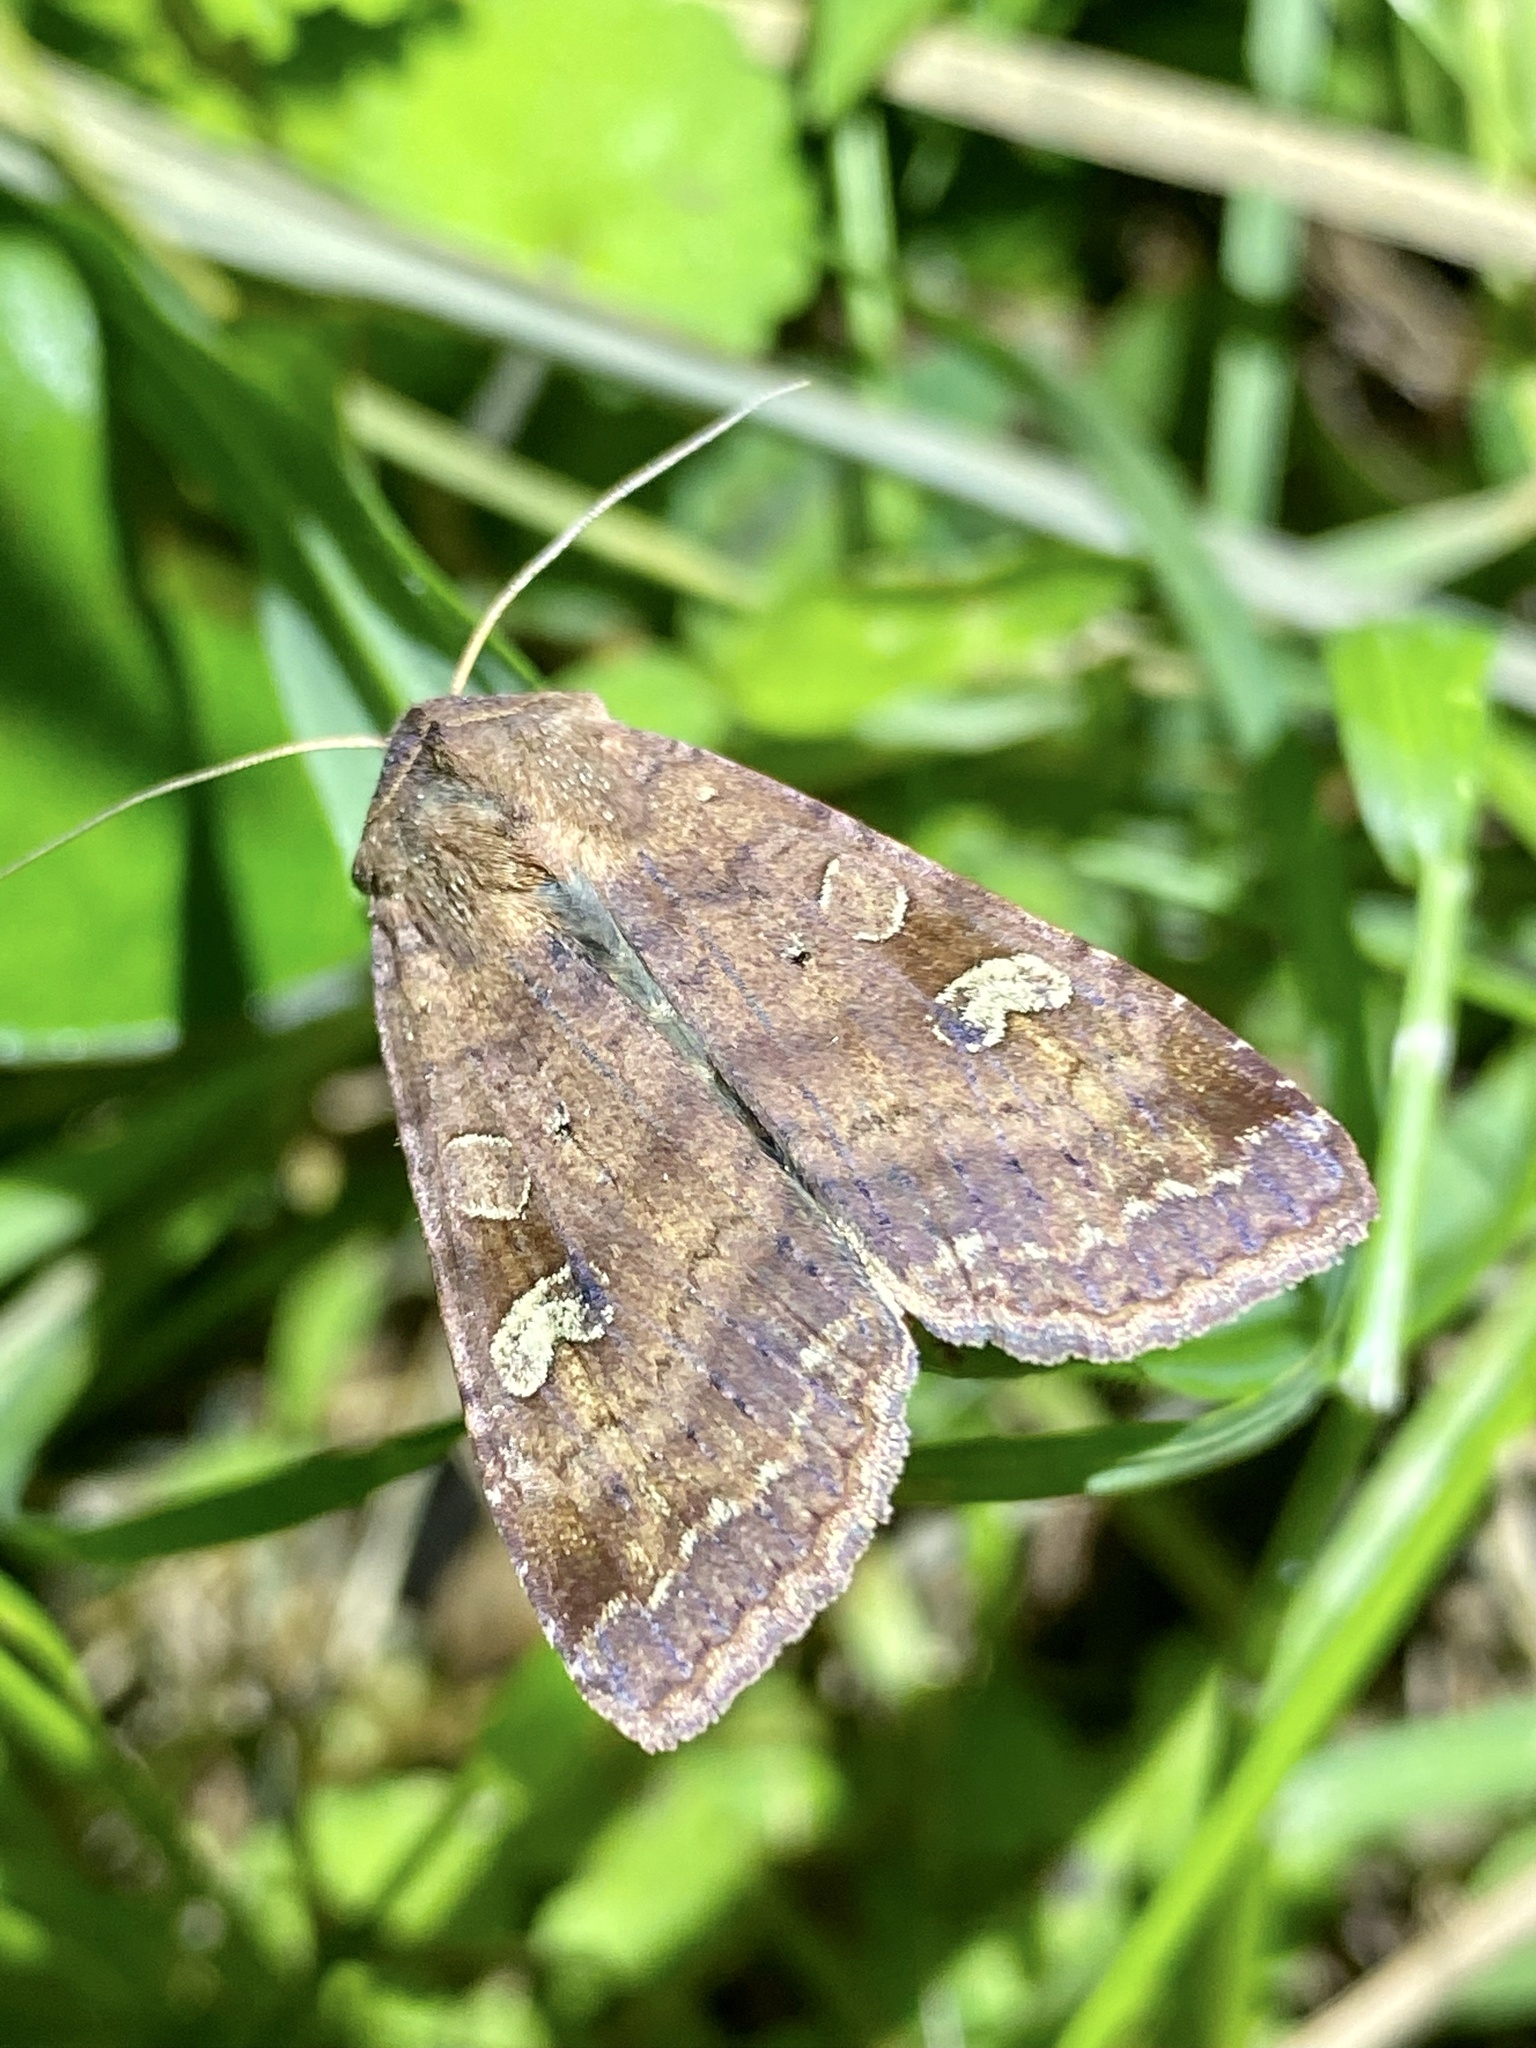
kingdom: Animalia
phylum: Arthropoda
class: Insecta
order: Lepidoptera
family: Noctuidae
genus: Diarsia
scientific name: Diarsia canescens
